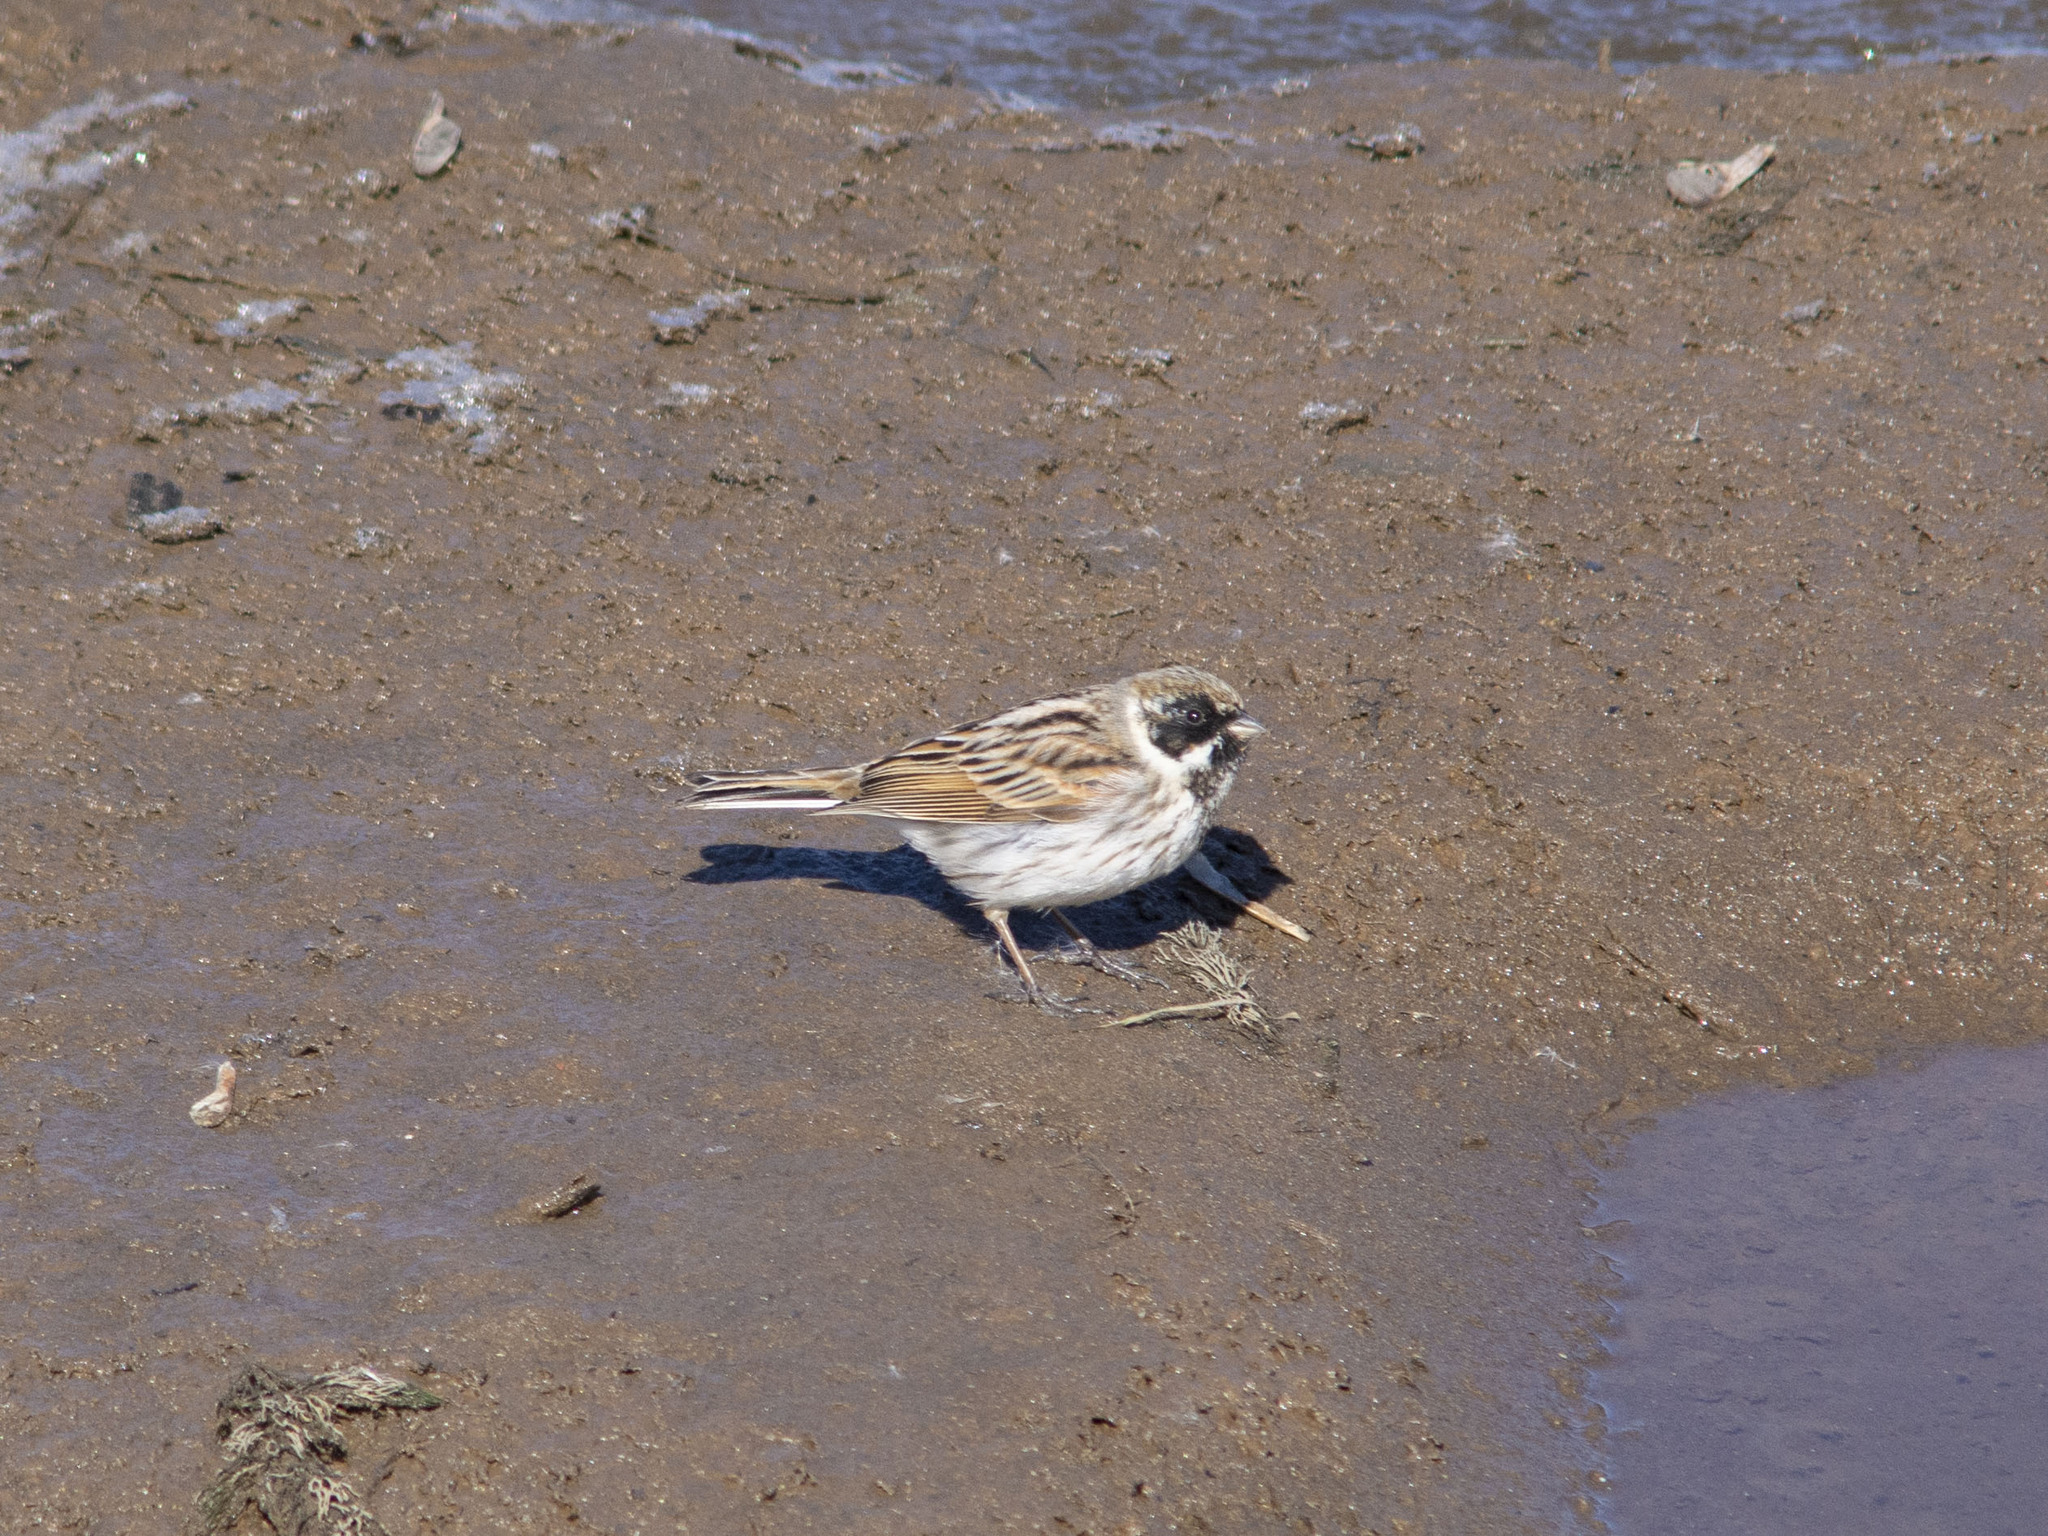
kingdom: Animalia
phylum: Chordata
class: Aves
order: Passeriformes
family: Emberizidae
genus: Emberiza
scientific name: Emberiza schoeniclus
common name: Reed bunting
